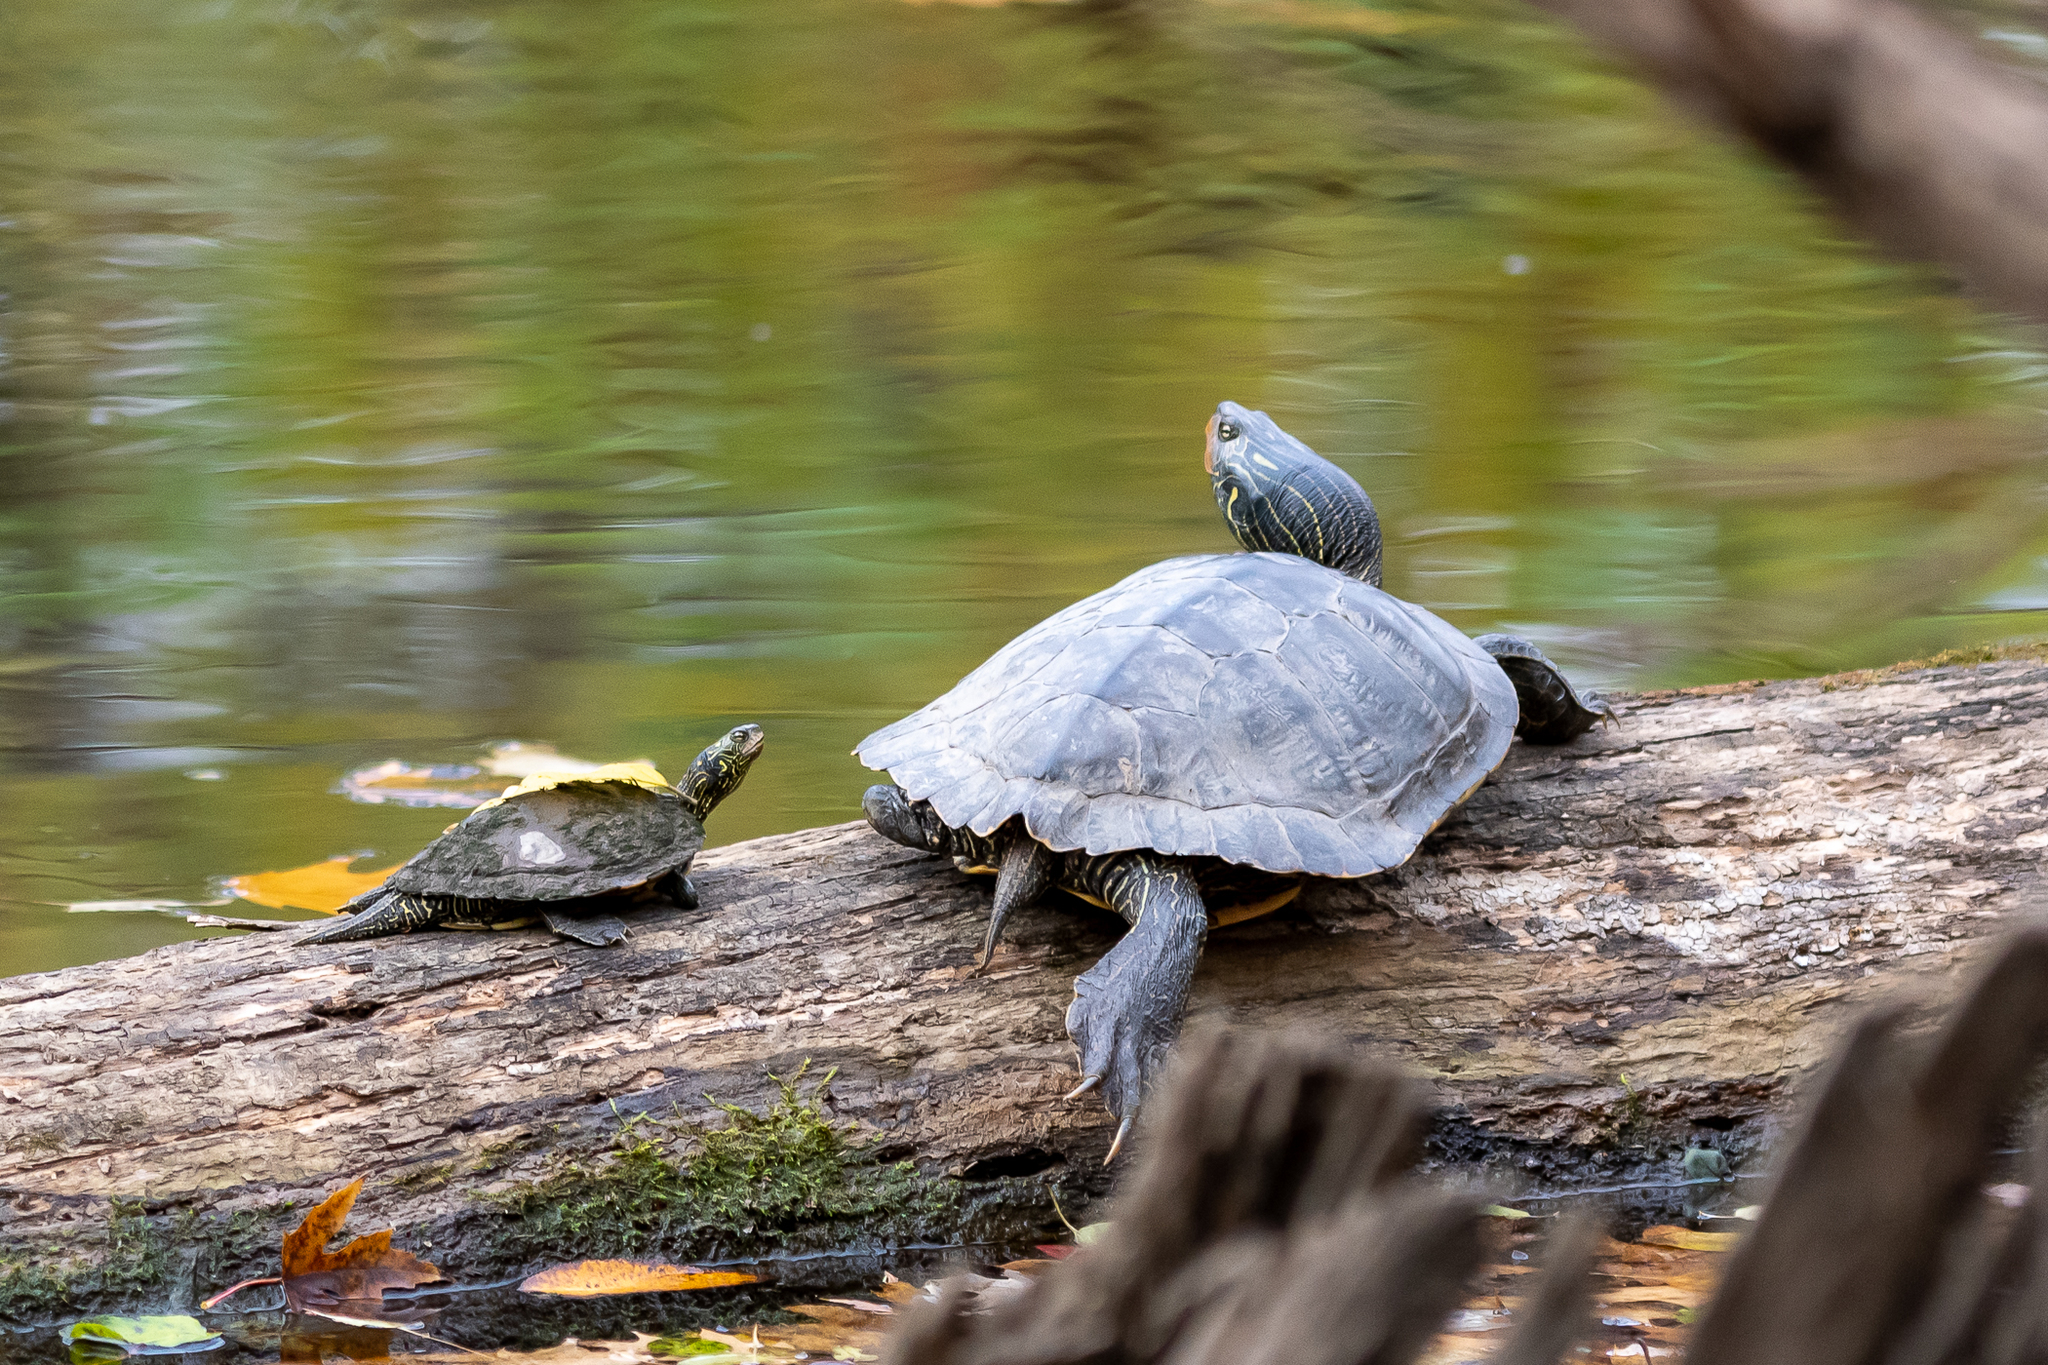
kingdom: Animalia
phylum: Chordata
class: Testudines
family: Emydidae
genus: Graptemys
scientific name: Graptemys geographica
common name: Common map turtle
